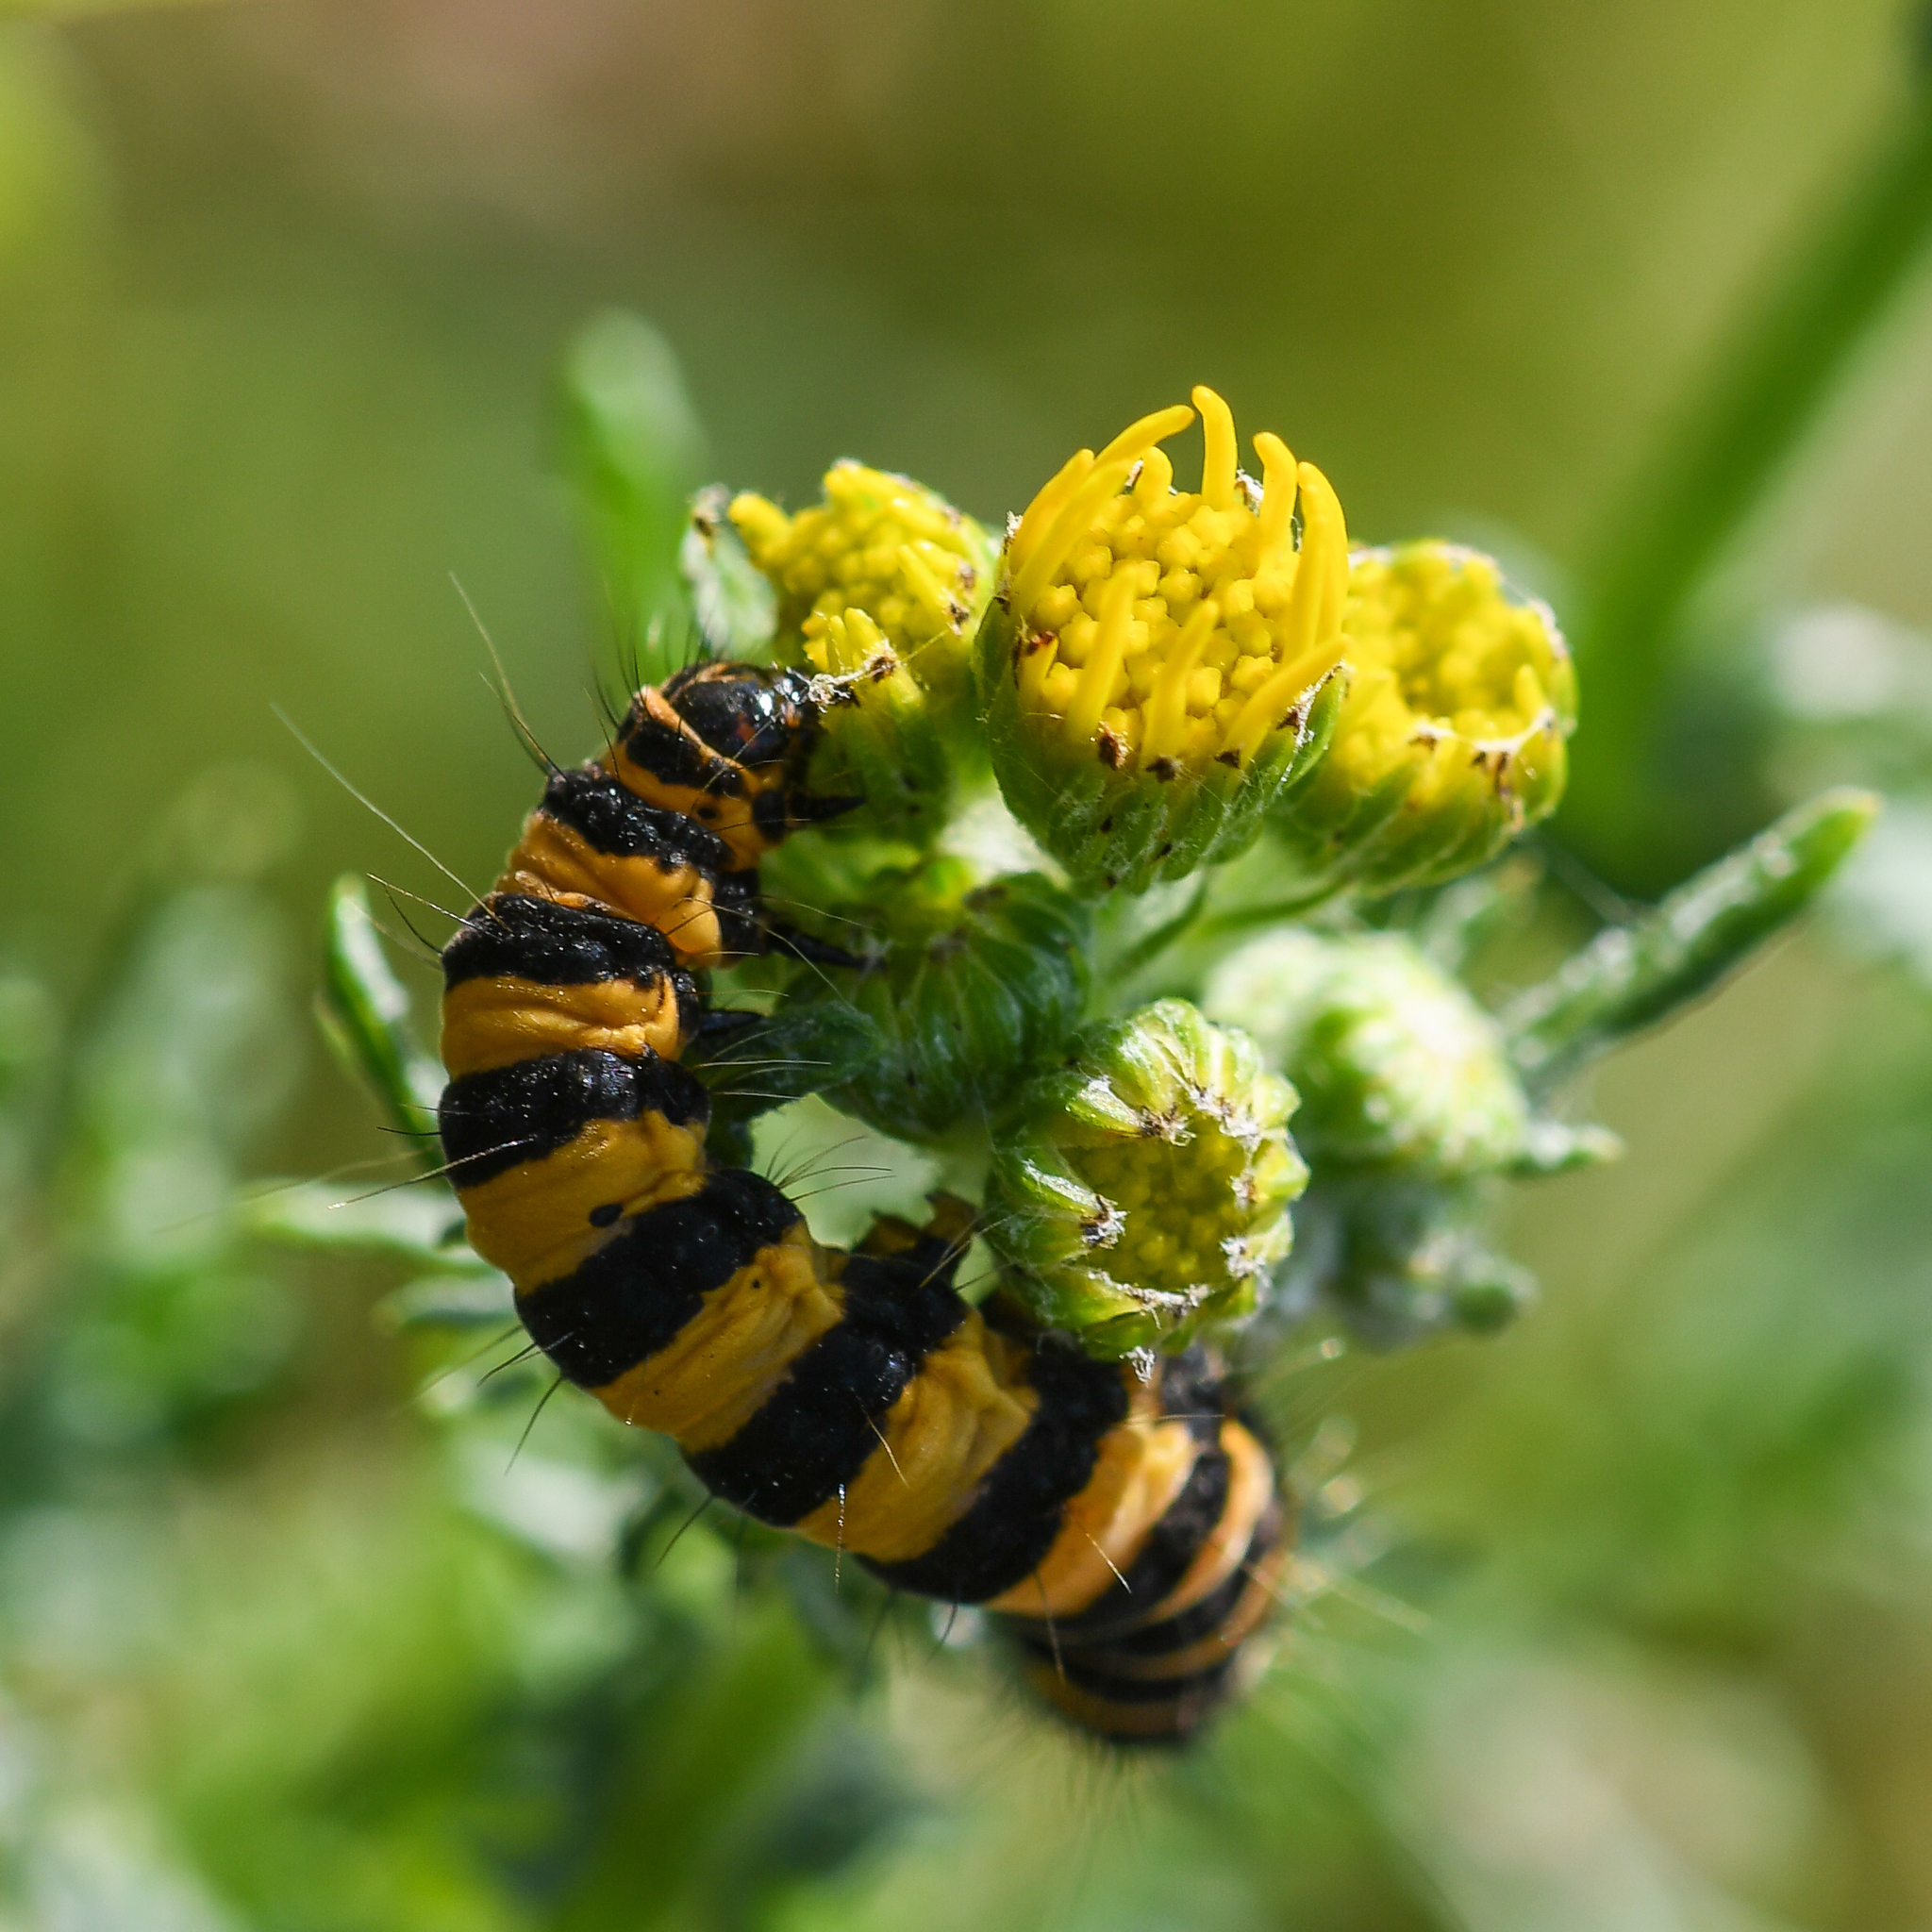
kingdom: Animalia
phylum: Arthropoda
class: Insecta
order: Lepidoptera
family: Erebidae
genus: Tyria
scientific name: Tyria jacobaeae
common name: Cinnabar
